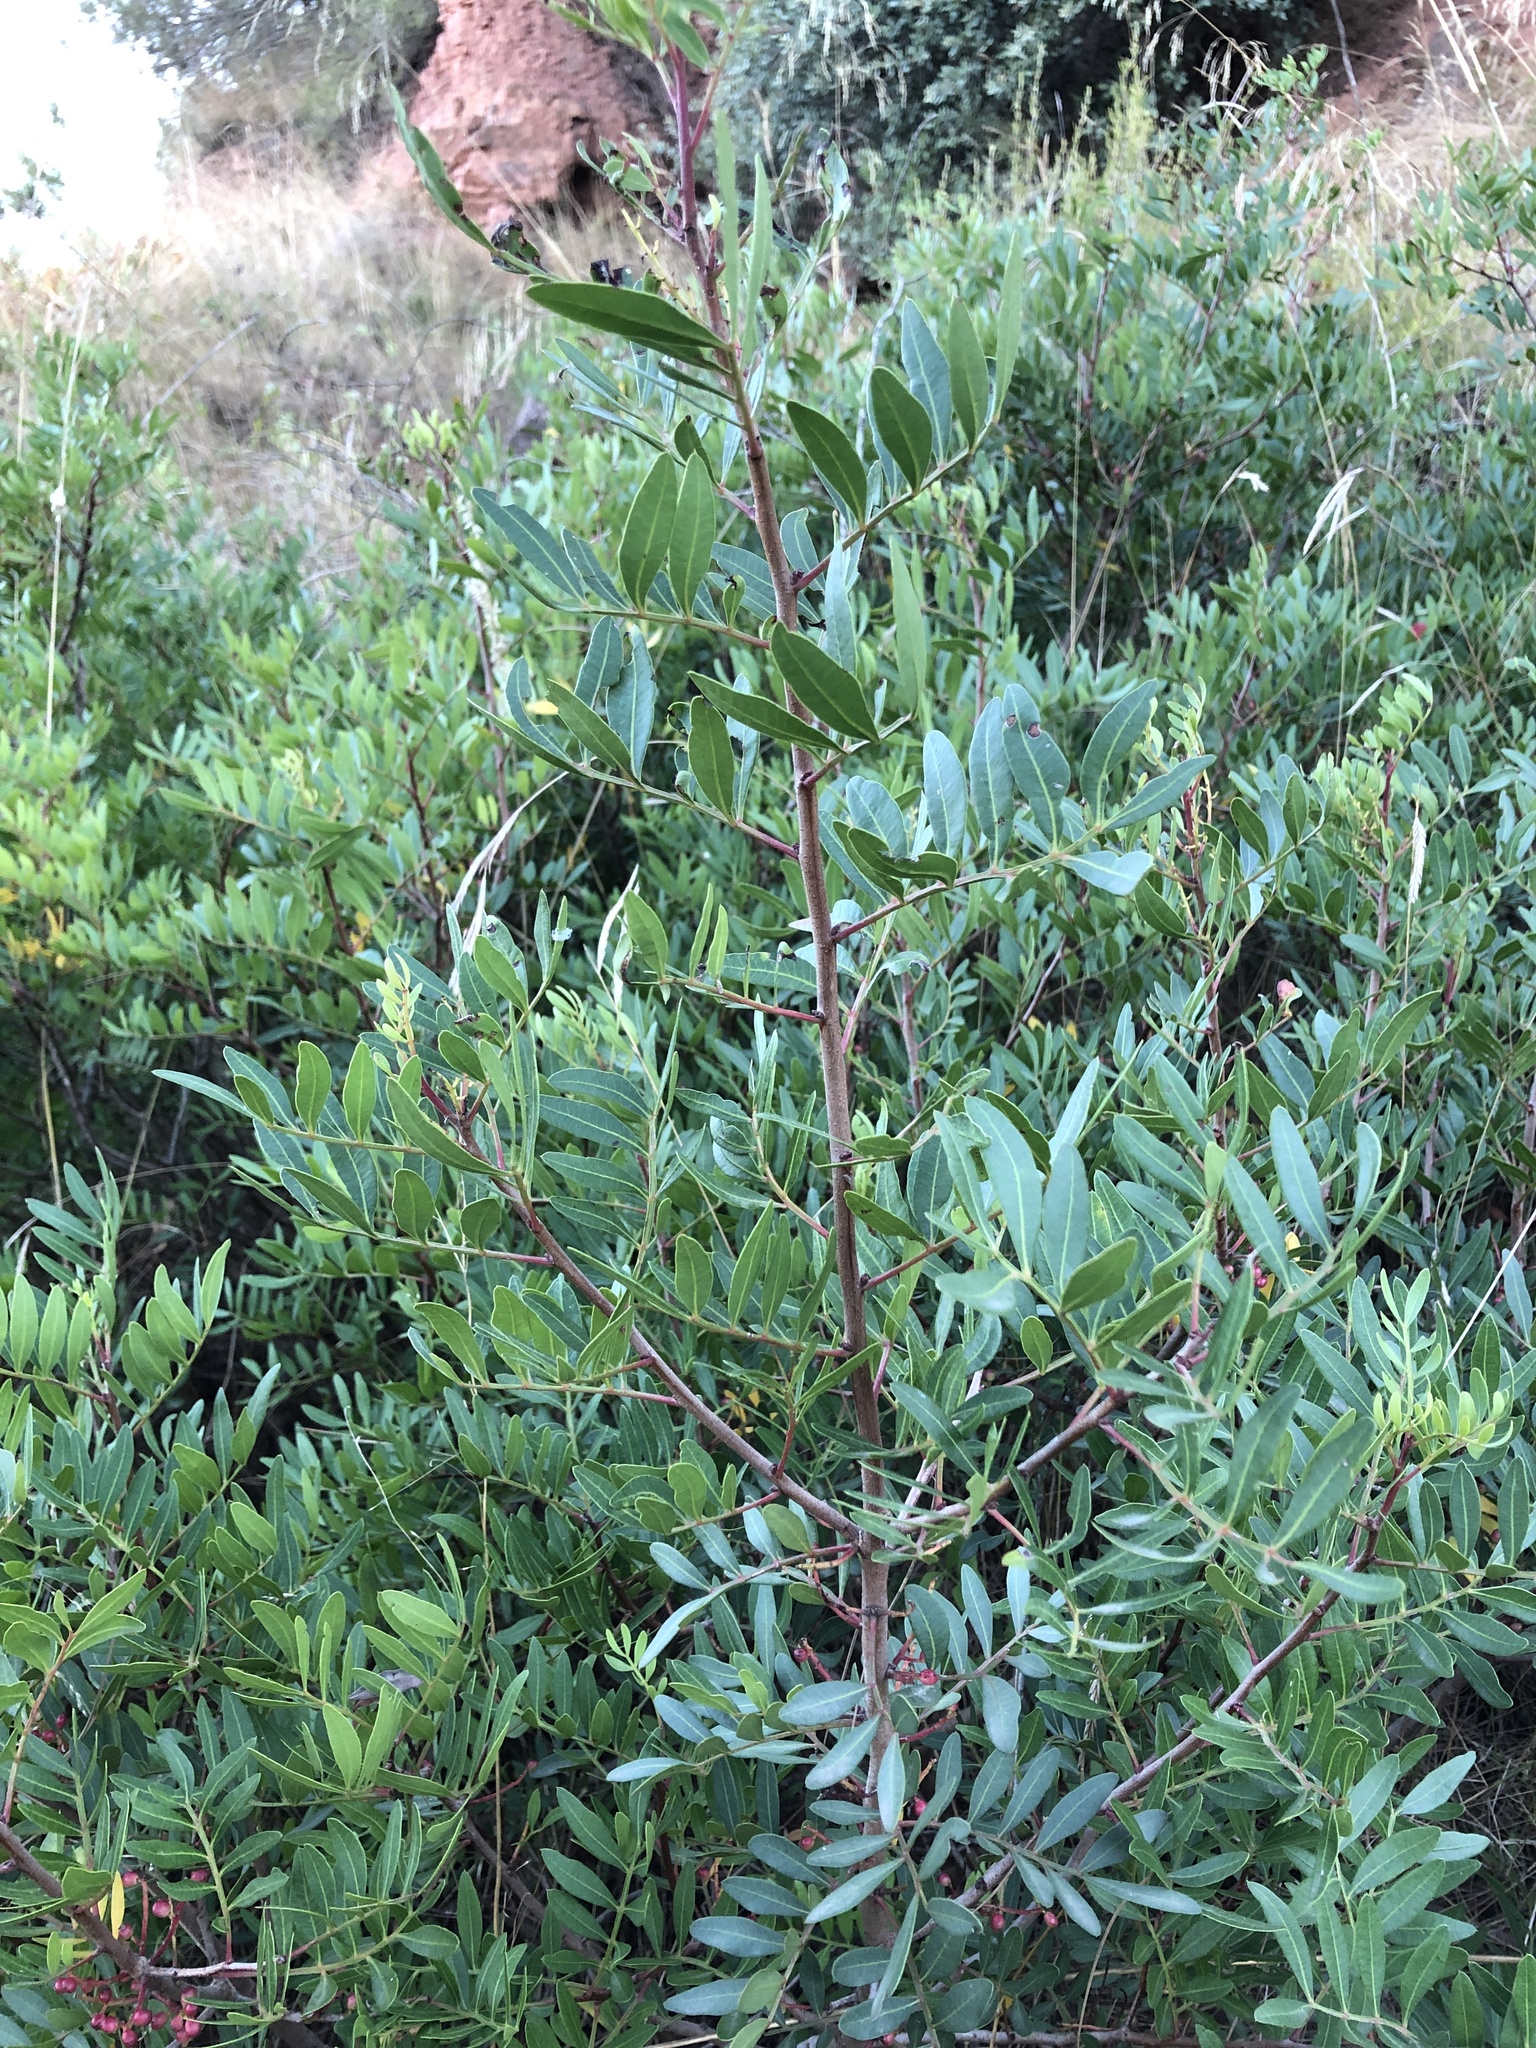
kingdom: Plantae
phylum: Tracheophyta
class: Magnoliopsida
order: Sapindales
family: Anacardiaceae
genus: Pistacia
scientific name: Pistacia lentiscus
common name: Lentisk
